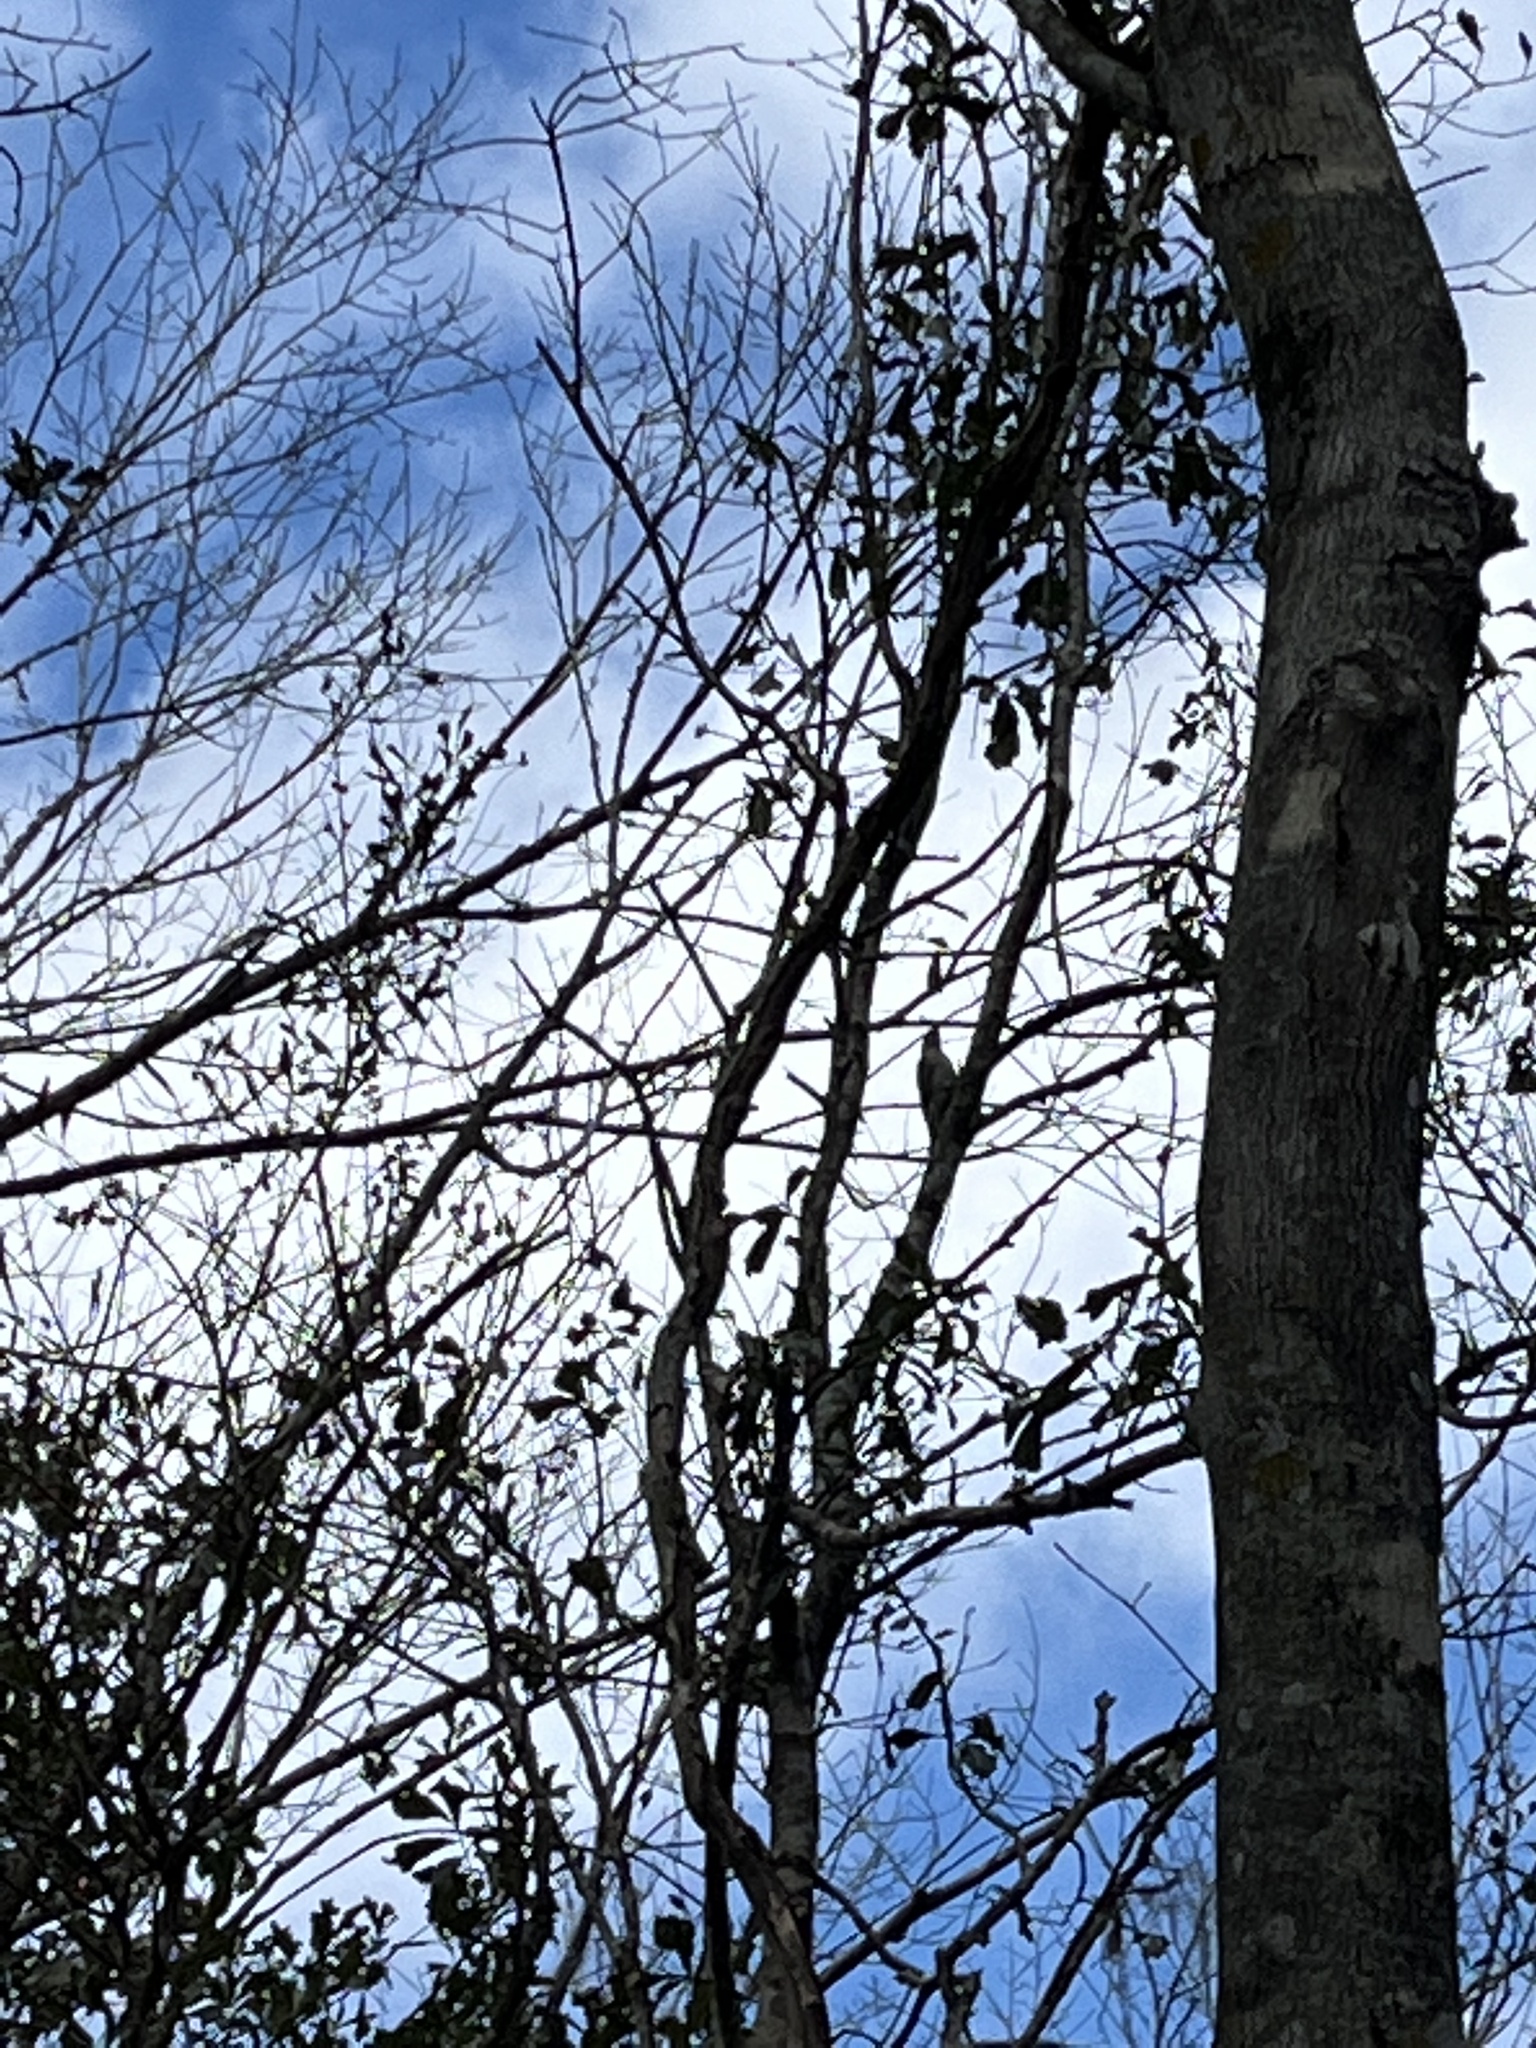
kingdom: Animalia
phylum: Chordata
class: Aves
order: Piciformes
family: Picidae
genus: Melanerpes
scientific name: Melanerpes carolinus
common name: Red-bellied woodpecker
